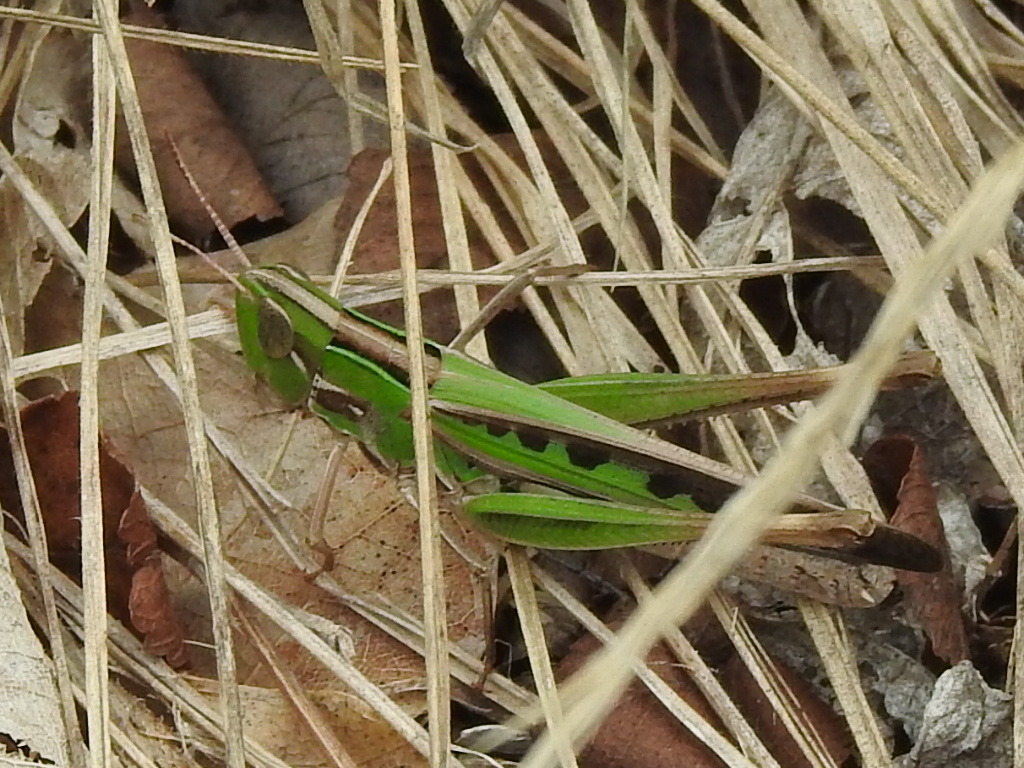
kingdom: Animalia
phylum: Arthropoda
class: Insecta
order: Orthoptera
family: Acrididae
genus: Syrbula
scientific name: Syrbula admirabilis
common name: Handsome grasshopper
